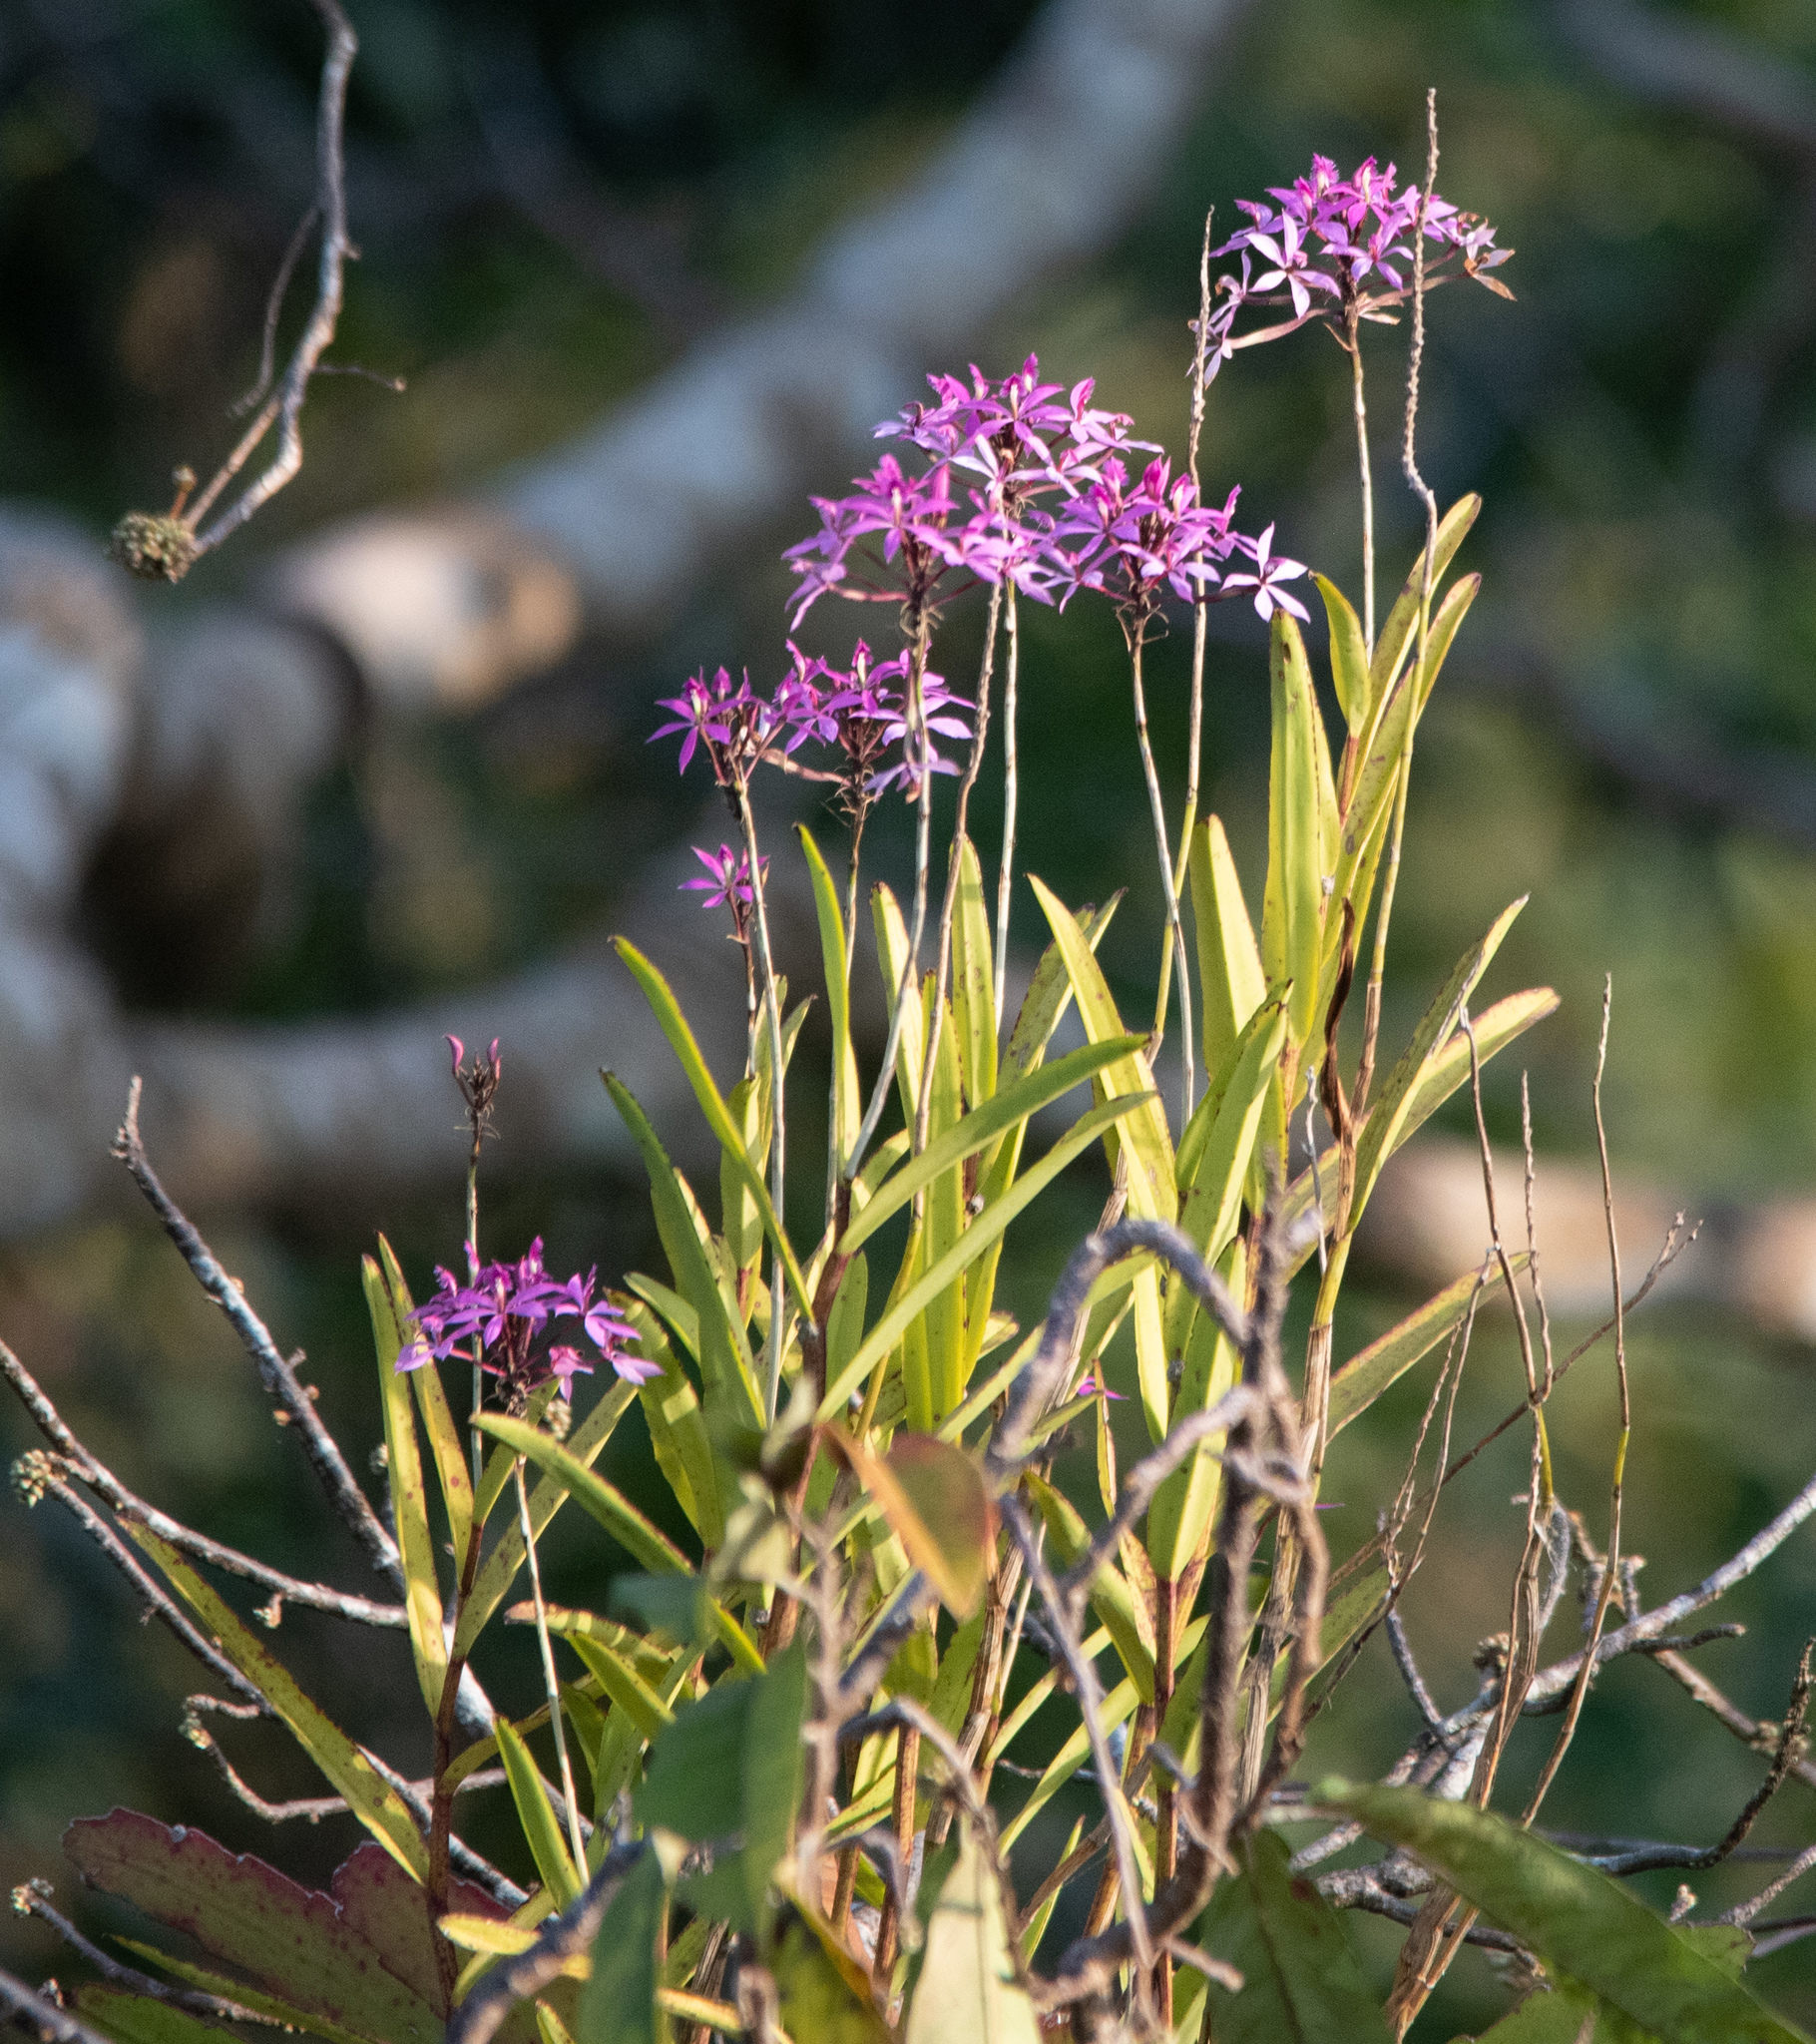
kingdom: Plantae
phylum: Tracheophyta
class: Liliopsida
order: Asparagales
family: Orchidaceae
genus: Epidendrum
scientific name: Epidendrum flexuosum
